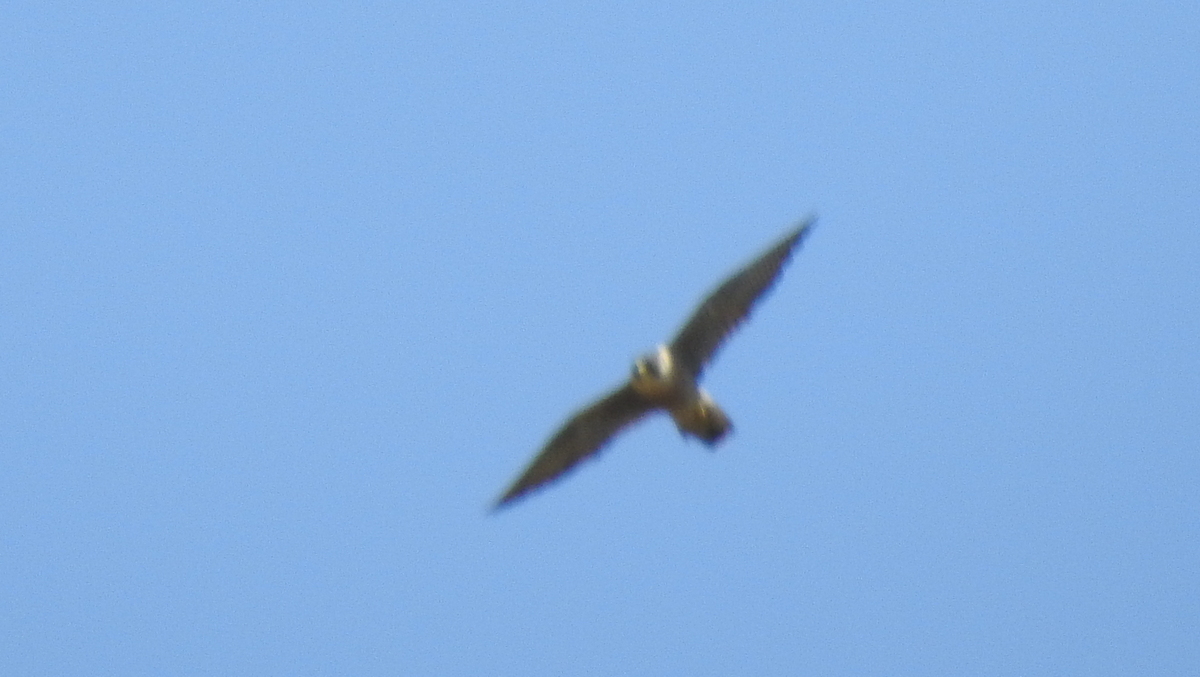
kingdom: Animalia
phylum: Chordata
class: Aves
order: Falconiformes
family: Falconidae
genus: Falco
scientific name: Falco peregrinus
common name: Peregrine falcon
